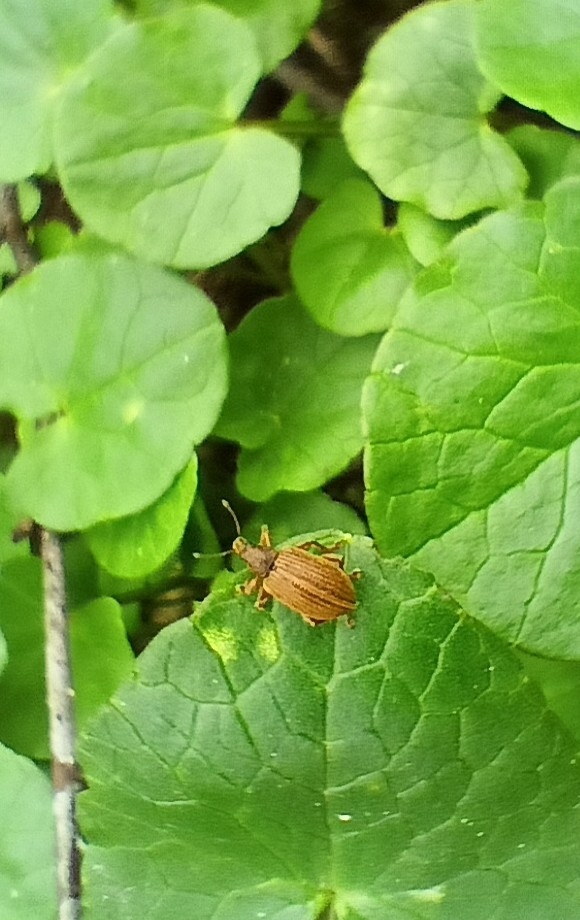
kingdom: Animalia
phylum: Arthropoda
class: Insecta
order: Coleoptera
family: Curculionidae
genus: Polydrusus
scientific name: Polydrusus mollis
